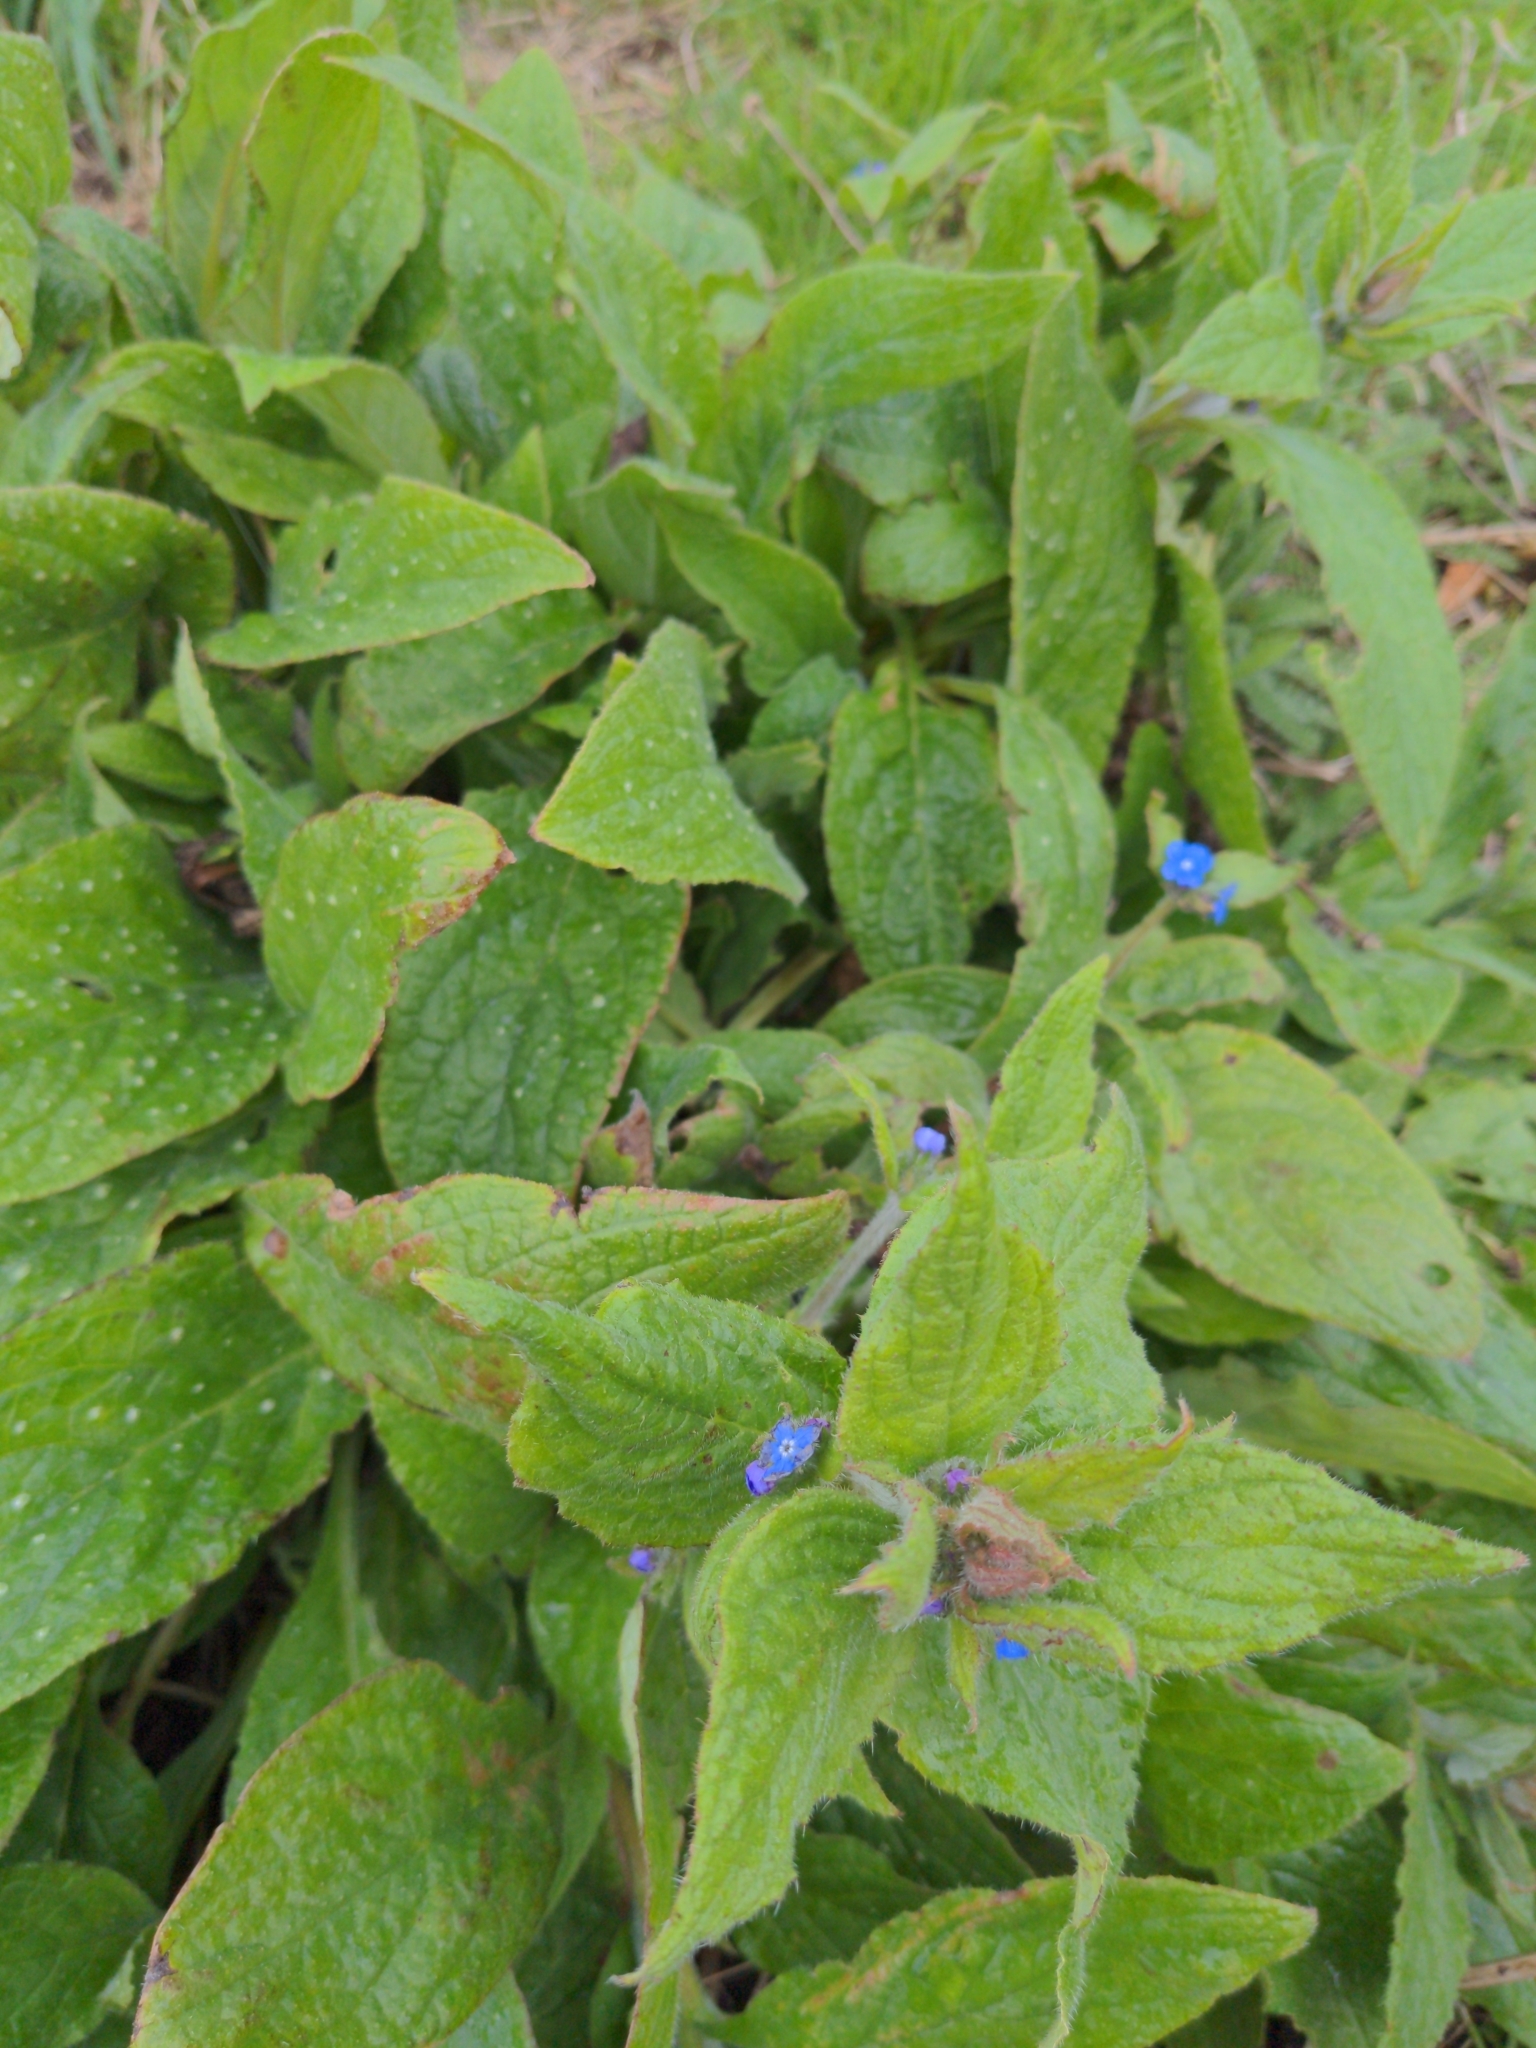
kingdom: Plantae
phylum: Tracheophyta
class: Magnoliopsida
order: Boraginales
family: Boraginaceae
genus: Pentaglottis
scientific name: Pentaglottis sempervirens
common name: Green alkanet
